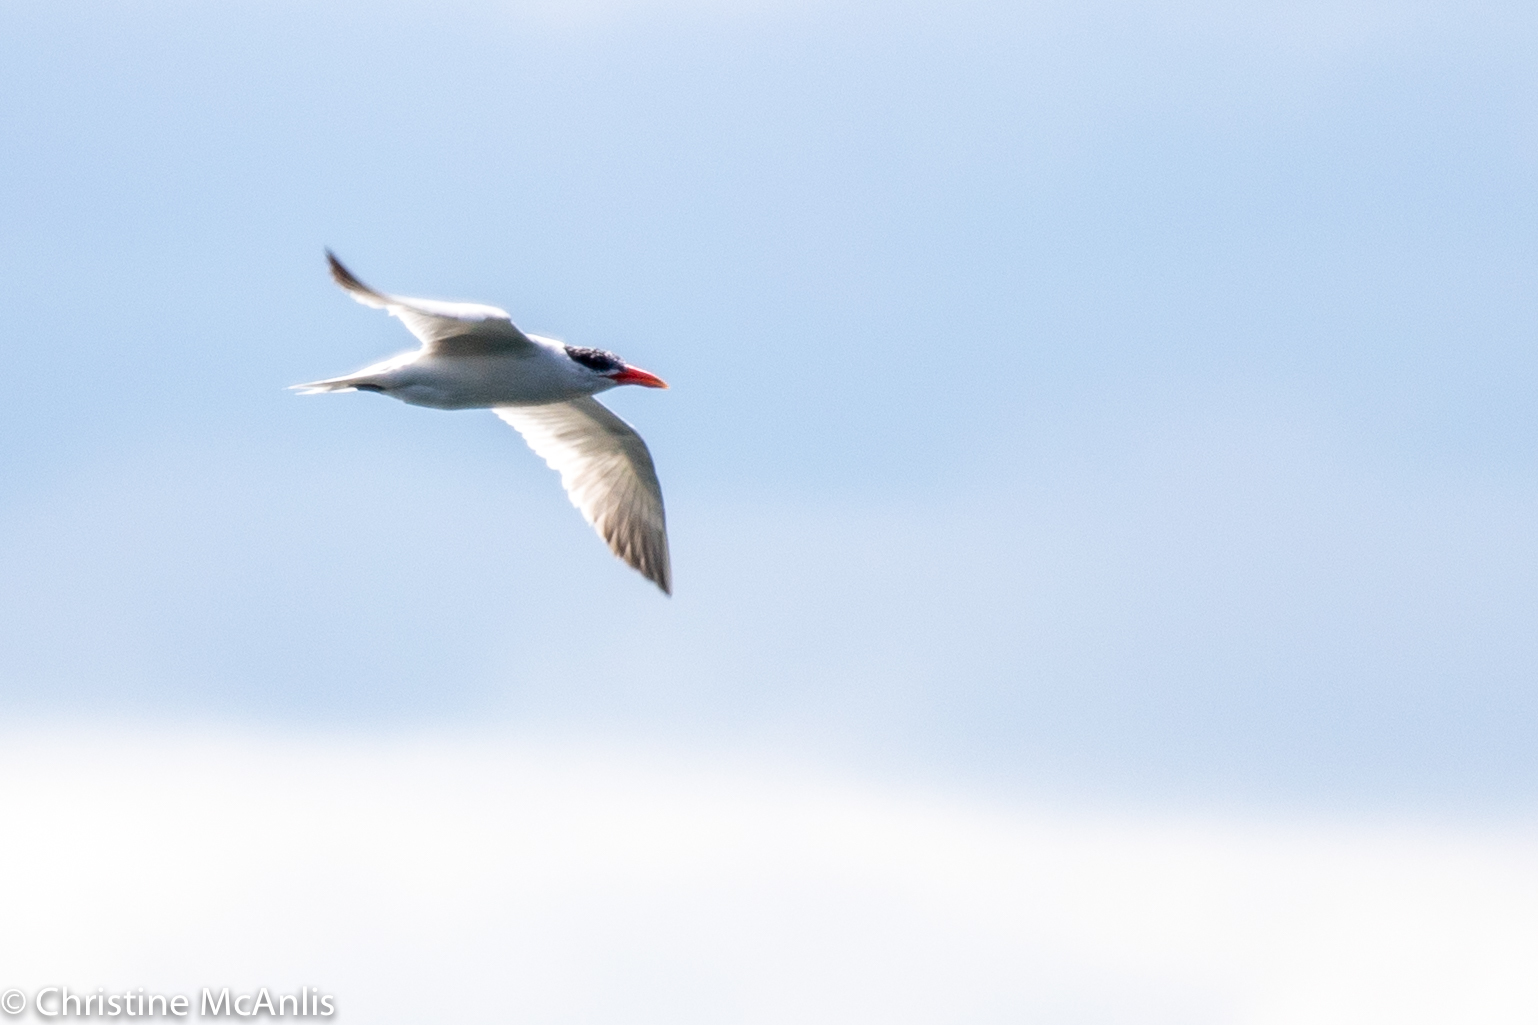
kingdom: Animalia
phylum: Chordata
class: Aves
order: Charadriiformes
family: Laridae
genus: Hydroprogne
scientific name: Hydroprogne caspia
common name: Caspian tern
